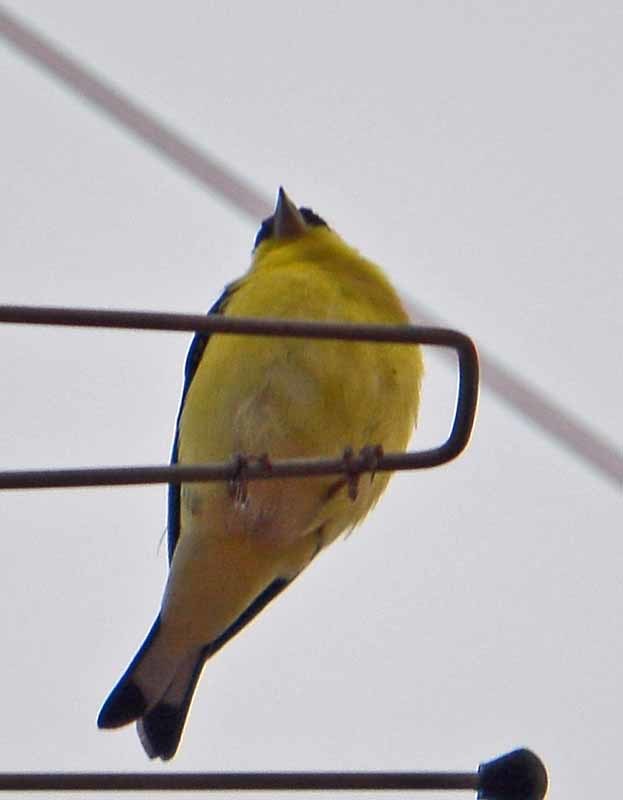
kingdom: Animalia
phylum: Chordata
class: Aves
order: Passeriformes
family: Fringillidae
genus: Spinus
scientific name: Spinus psaltria
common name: Lesser goldfinch
